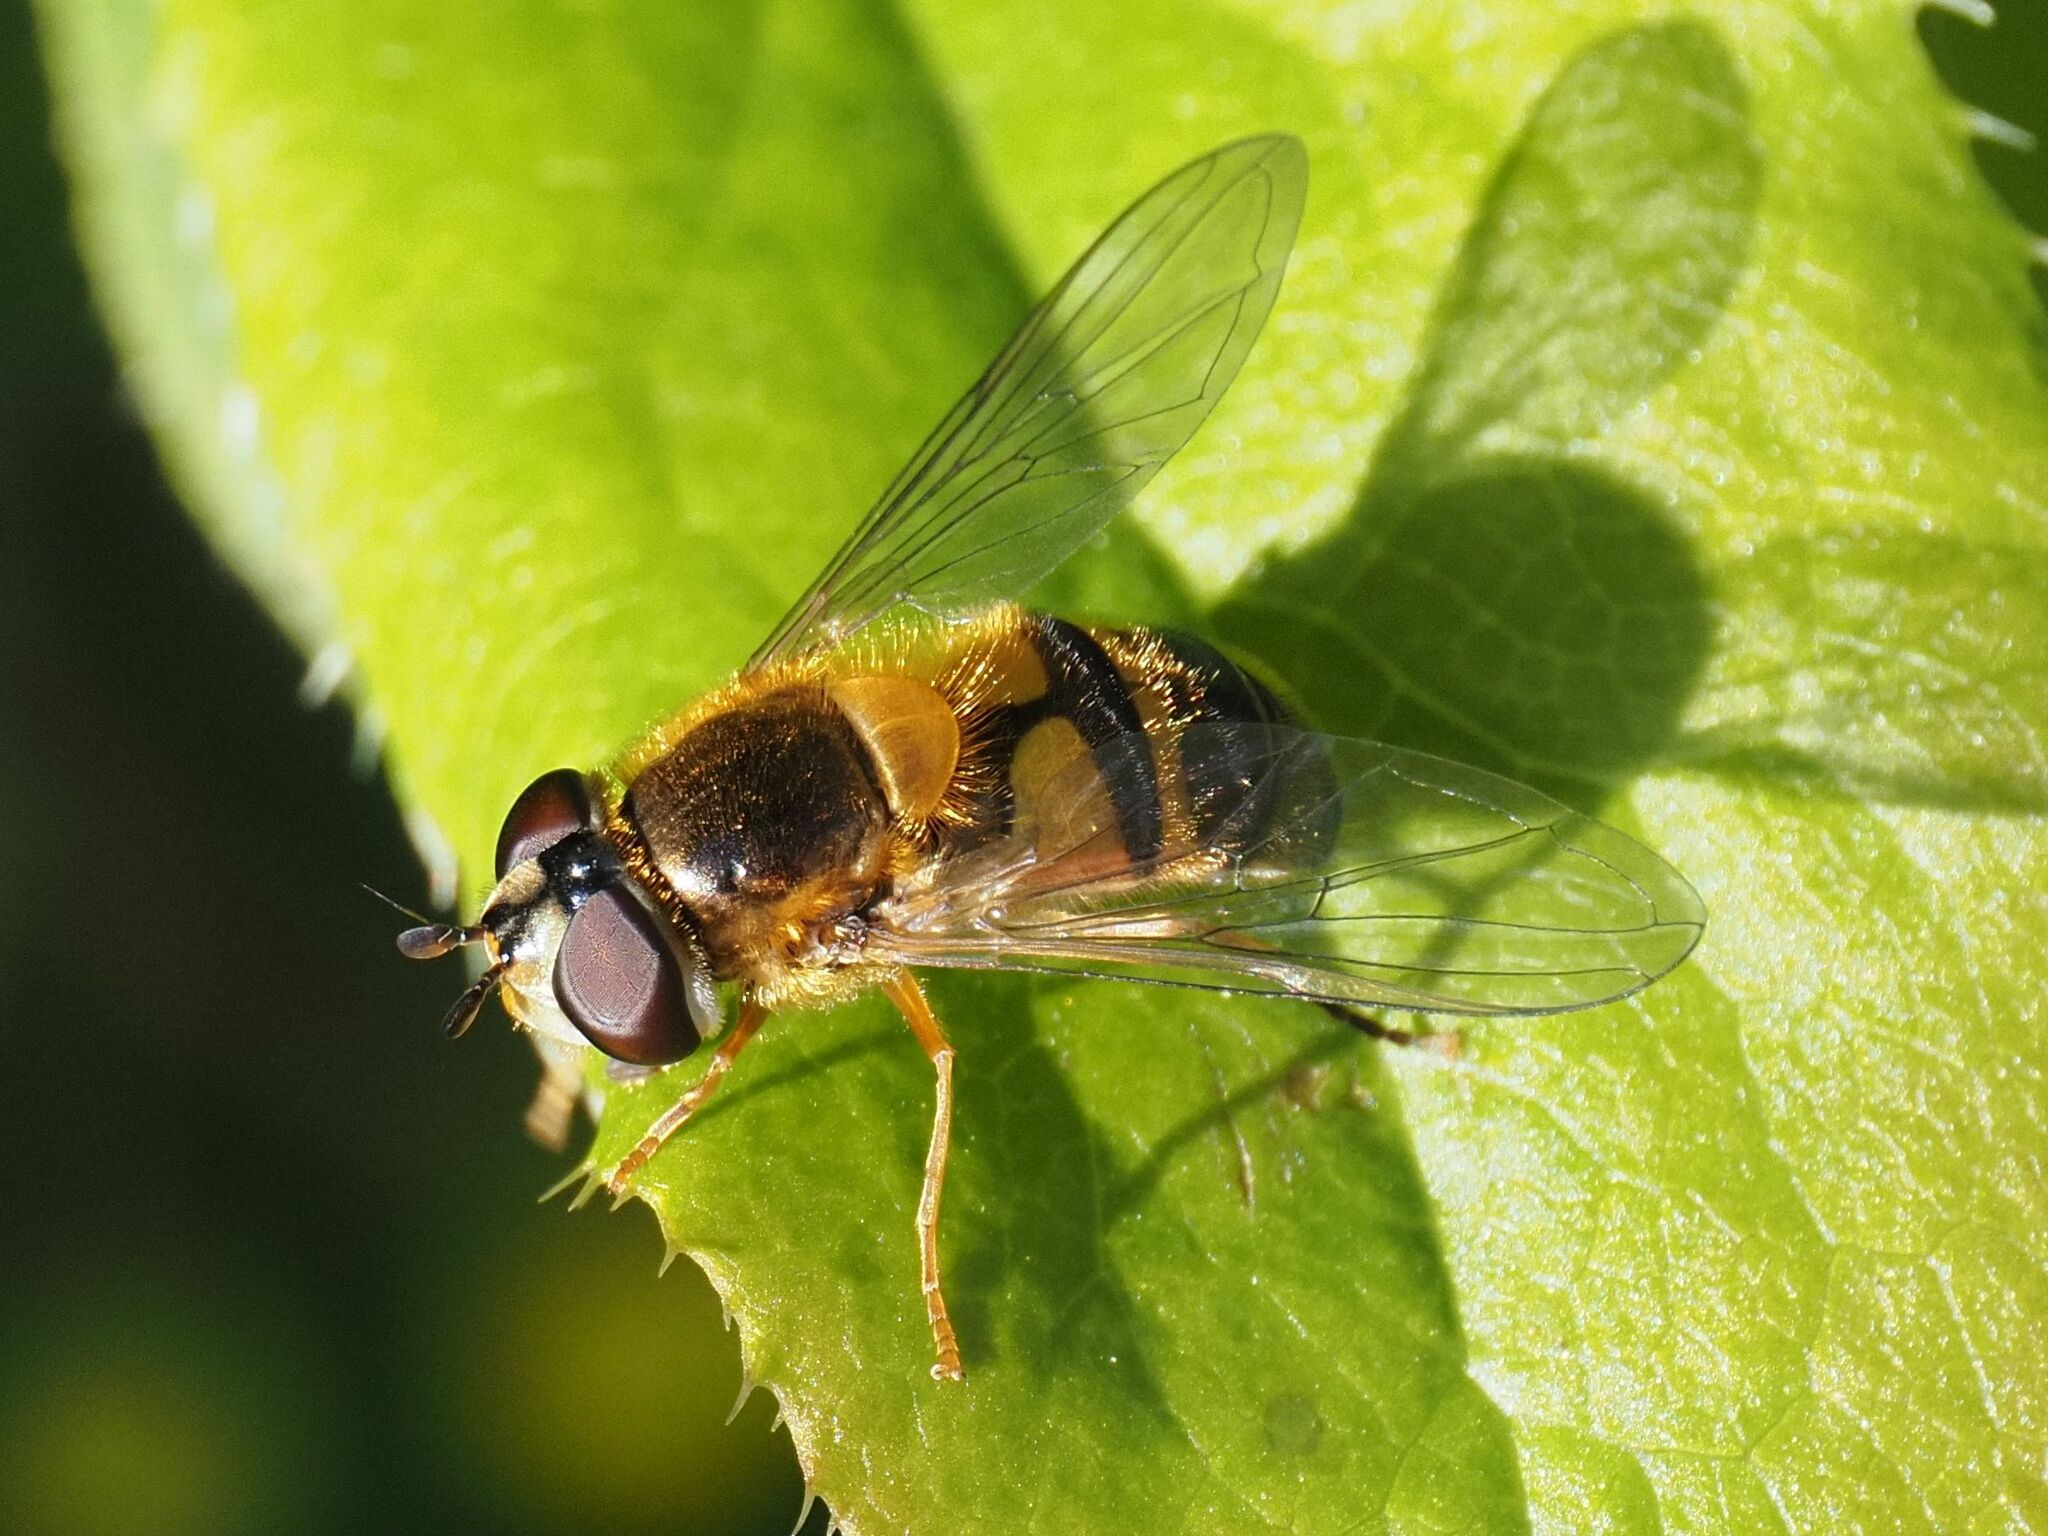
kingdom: Animalia
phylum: Arthropoda
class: Insecta
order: Diptera
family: Syrphidae
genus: Epistrophe
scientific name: Epistrophe eligans
